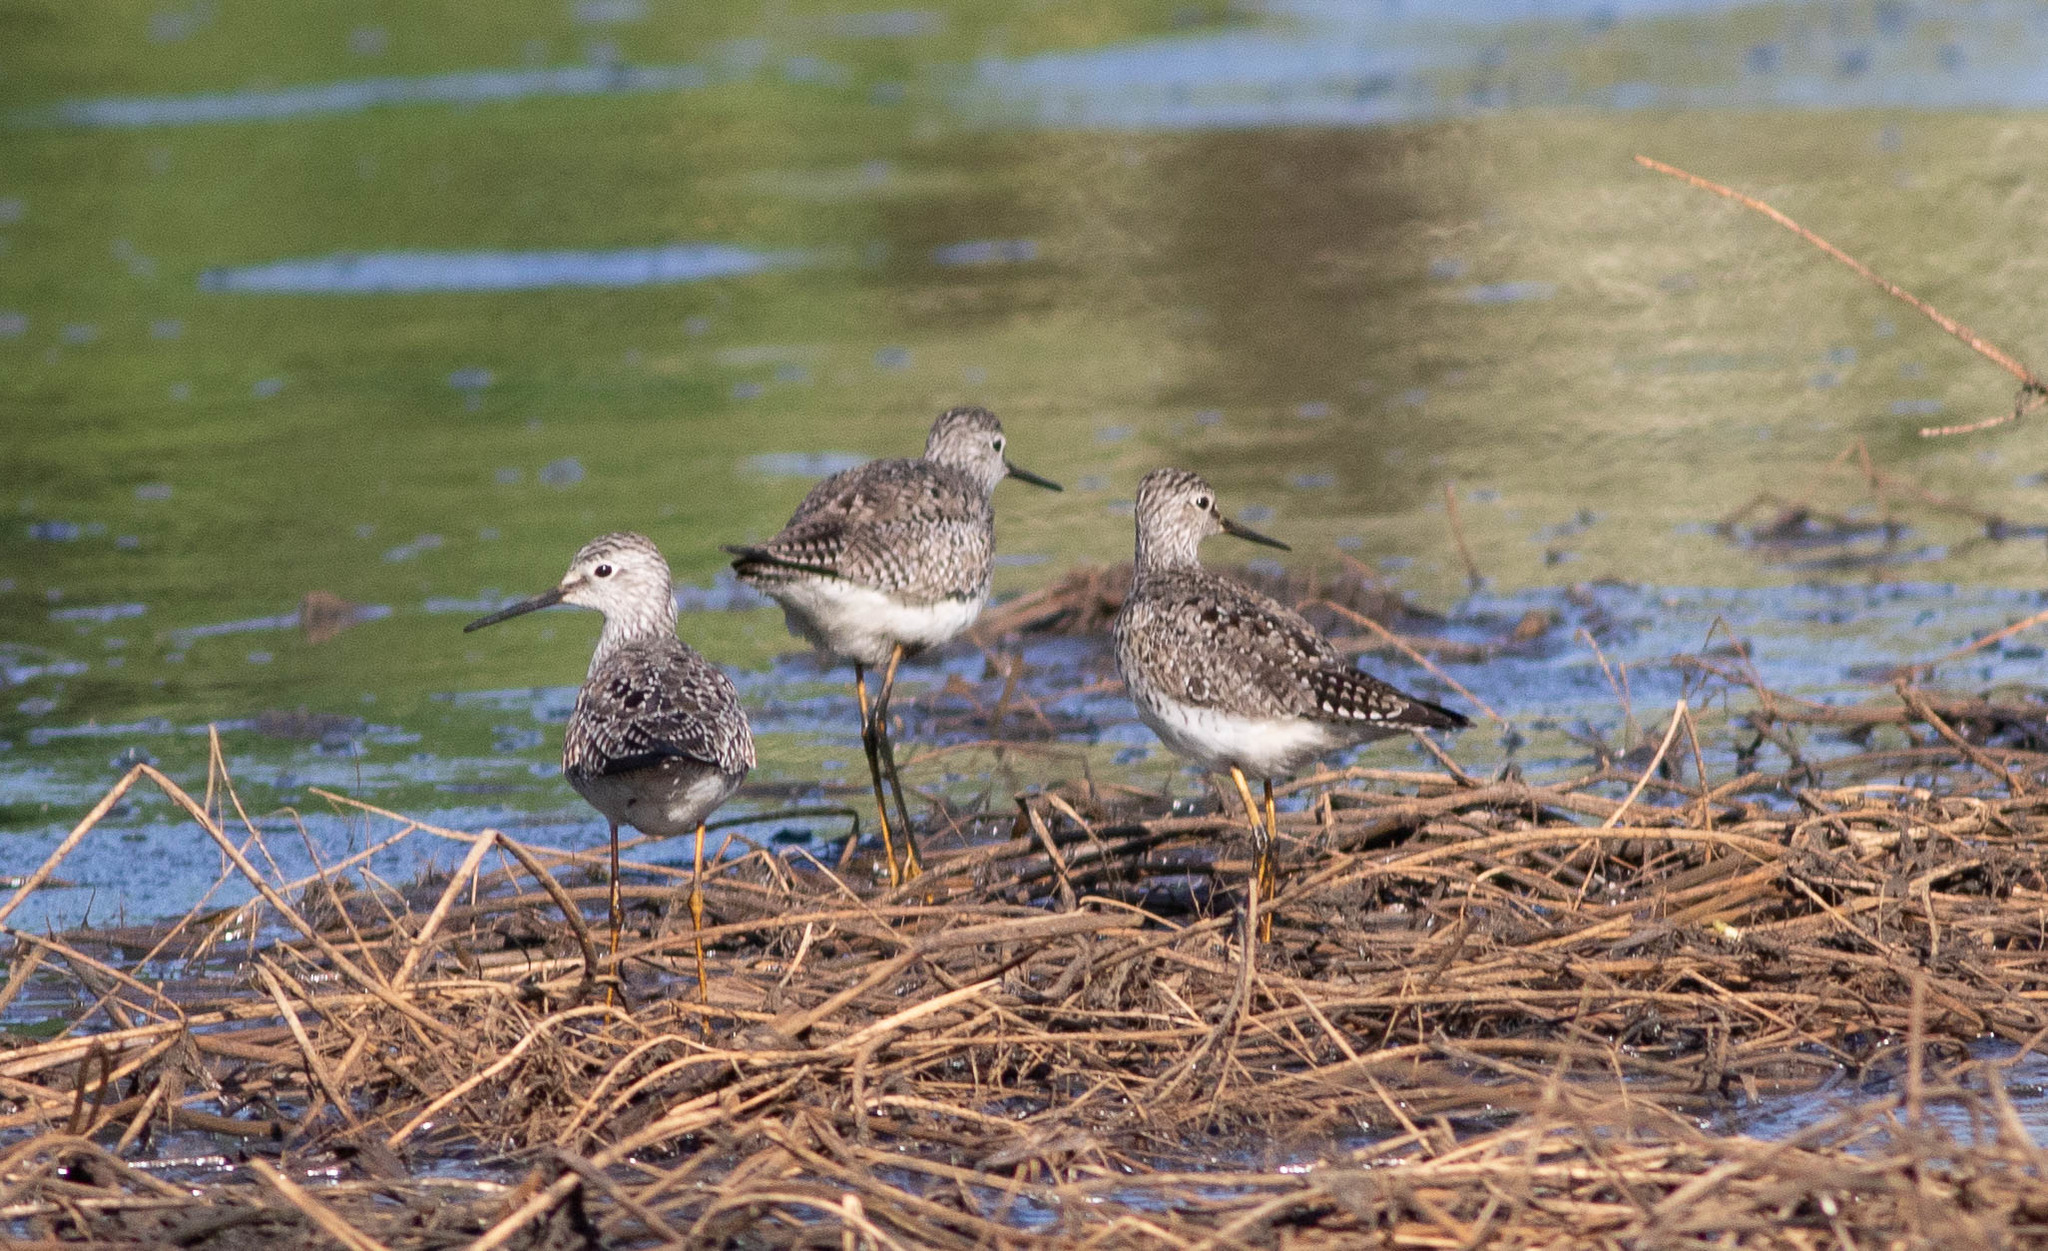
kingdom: Animalia
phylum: Chordata
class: Aves
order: Charadriiformes
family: Scolopacidae
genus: Tringa
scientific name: Tringa flavipes
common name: Lesser yellowlegs
